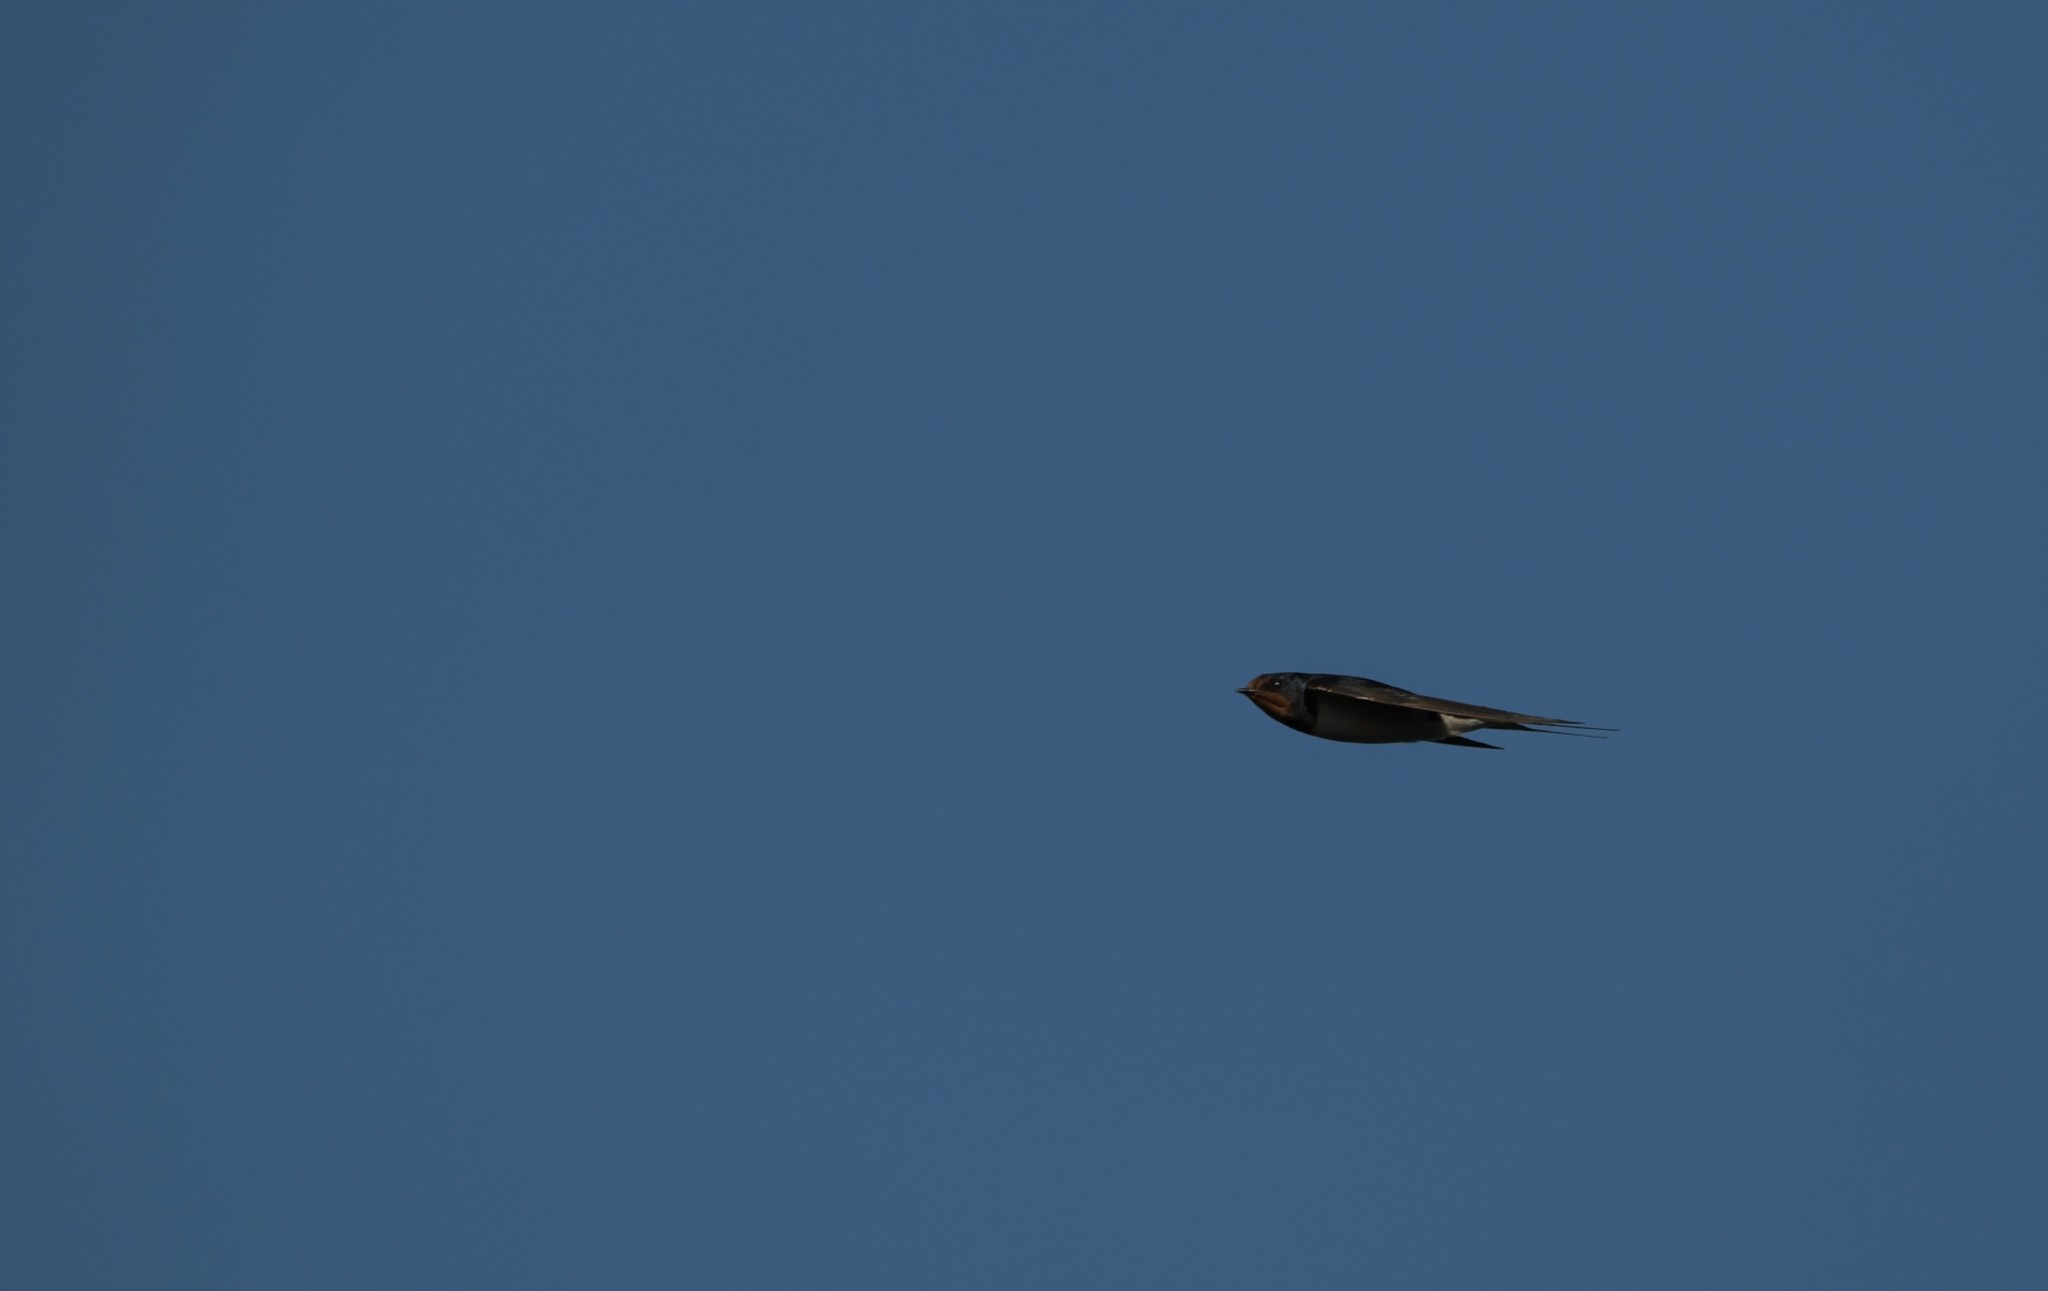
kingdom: Animalia
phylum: Chordata
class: Aves
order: Passeriformes
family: Hirundinidae
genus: Hirundo
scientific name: Hirundo rustica
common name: Barn swallow
